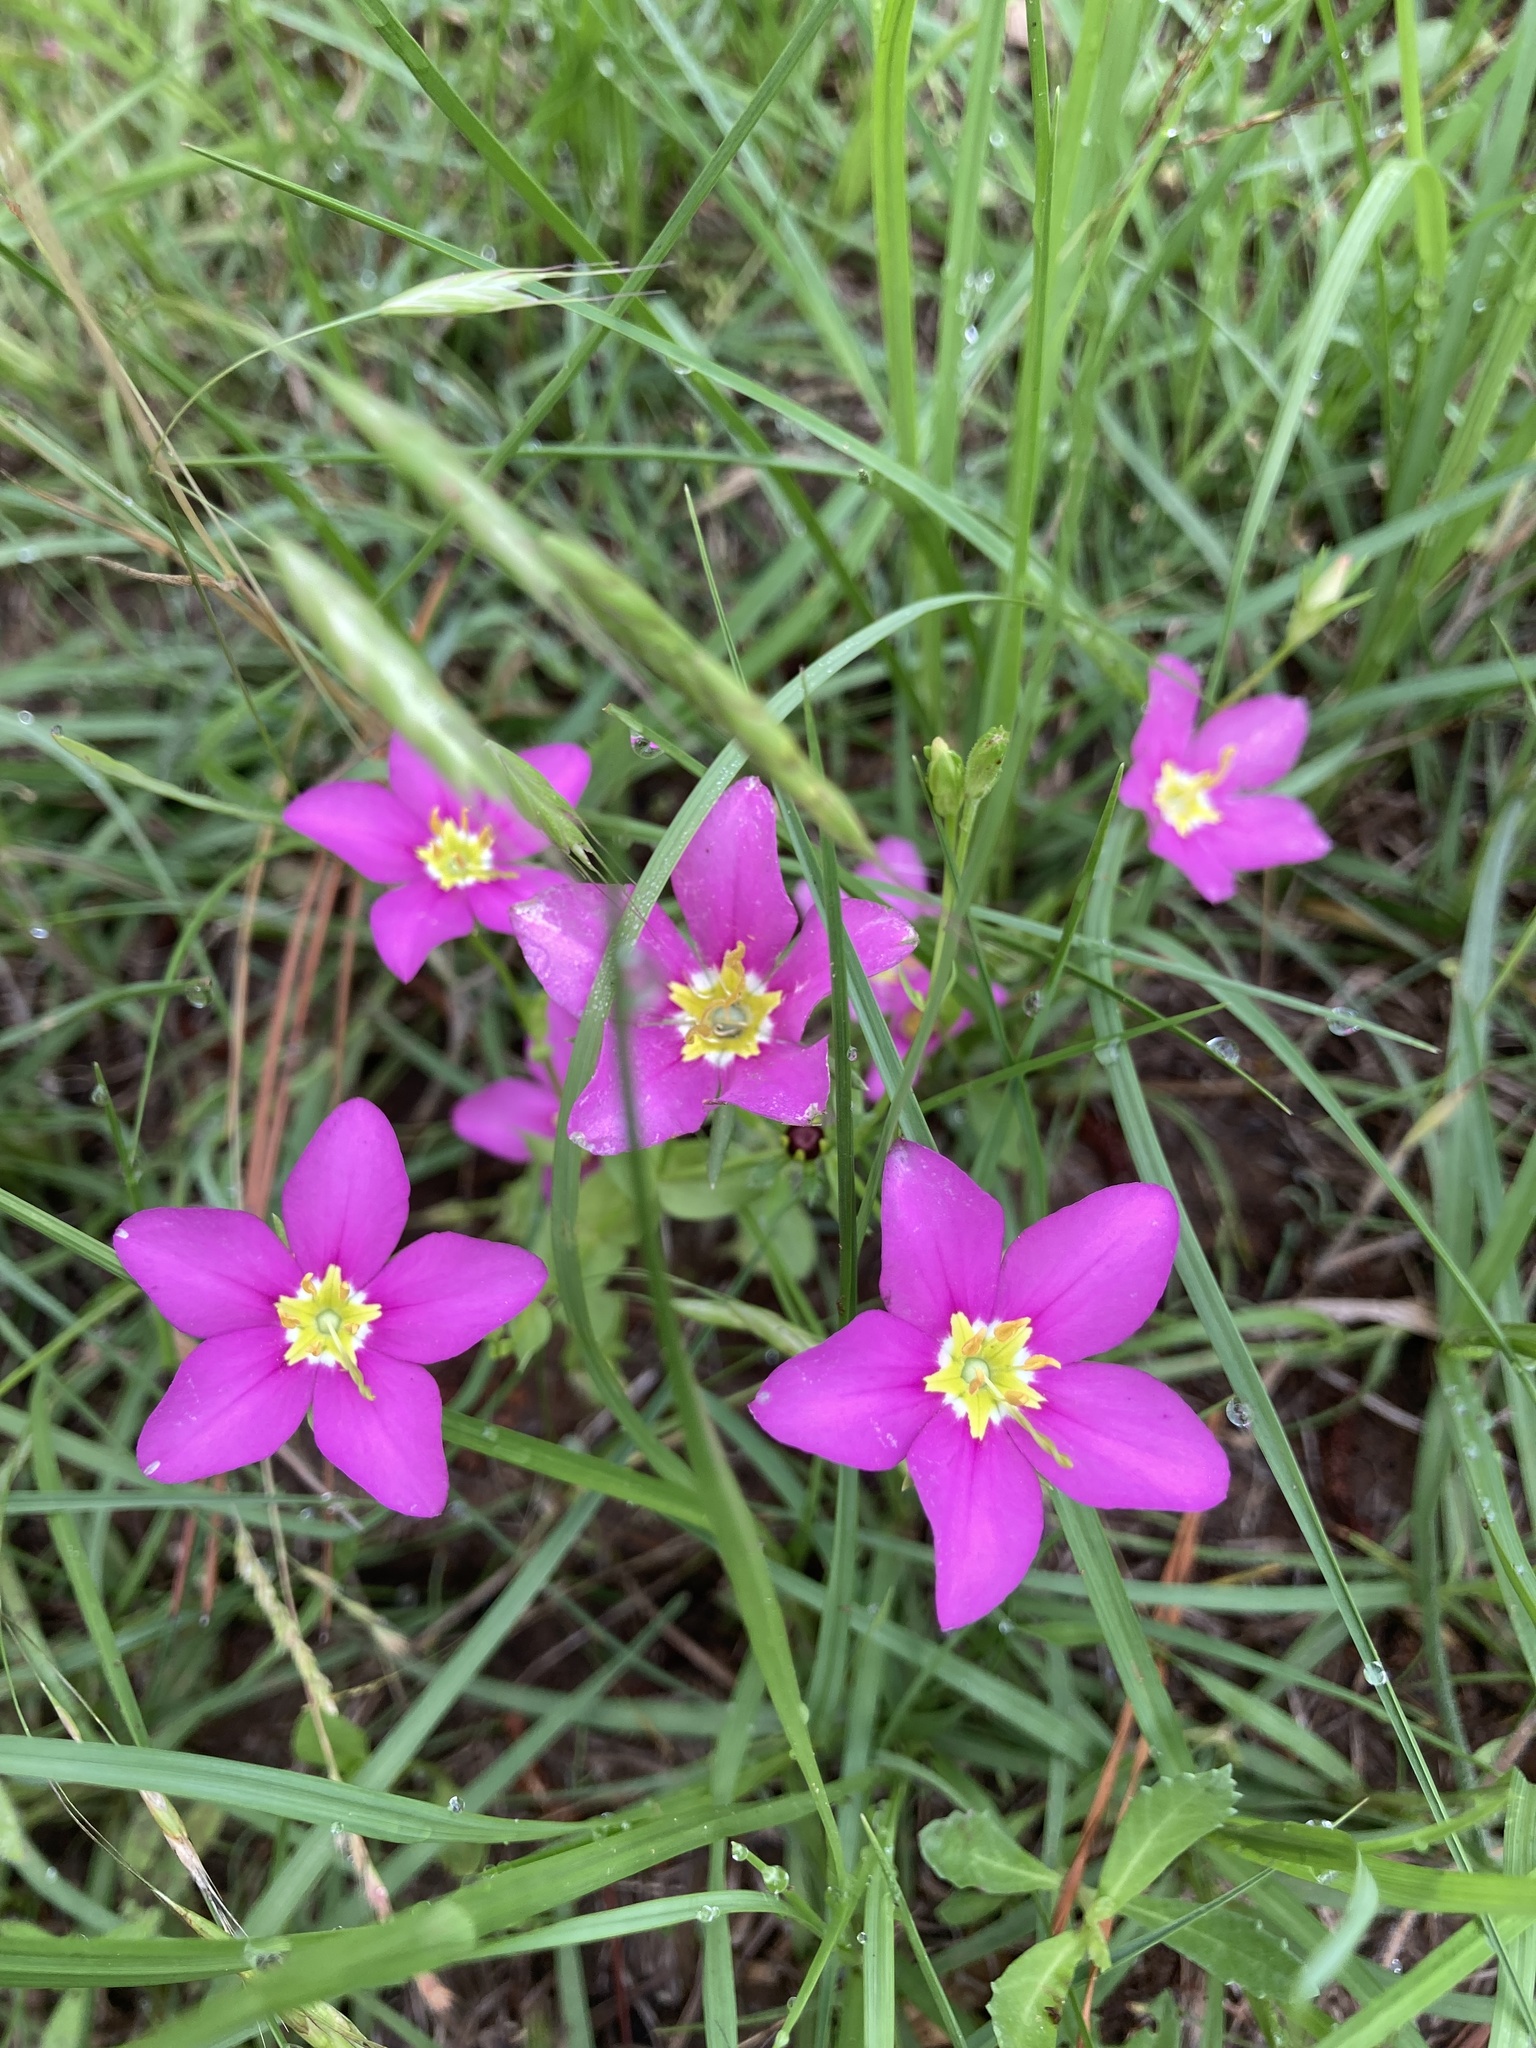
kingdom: Plantae
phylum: Tracheophyta
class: Magnoliopsida
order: Gentianales
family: Gentianaceae
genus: Sabatia
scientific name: Sabatia campestris
